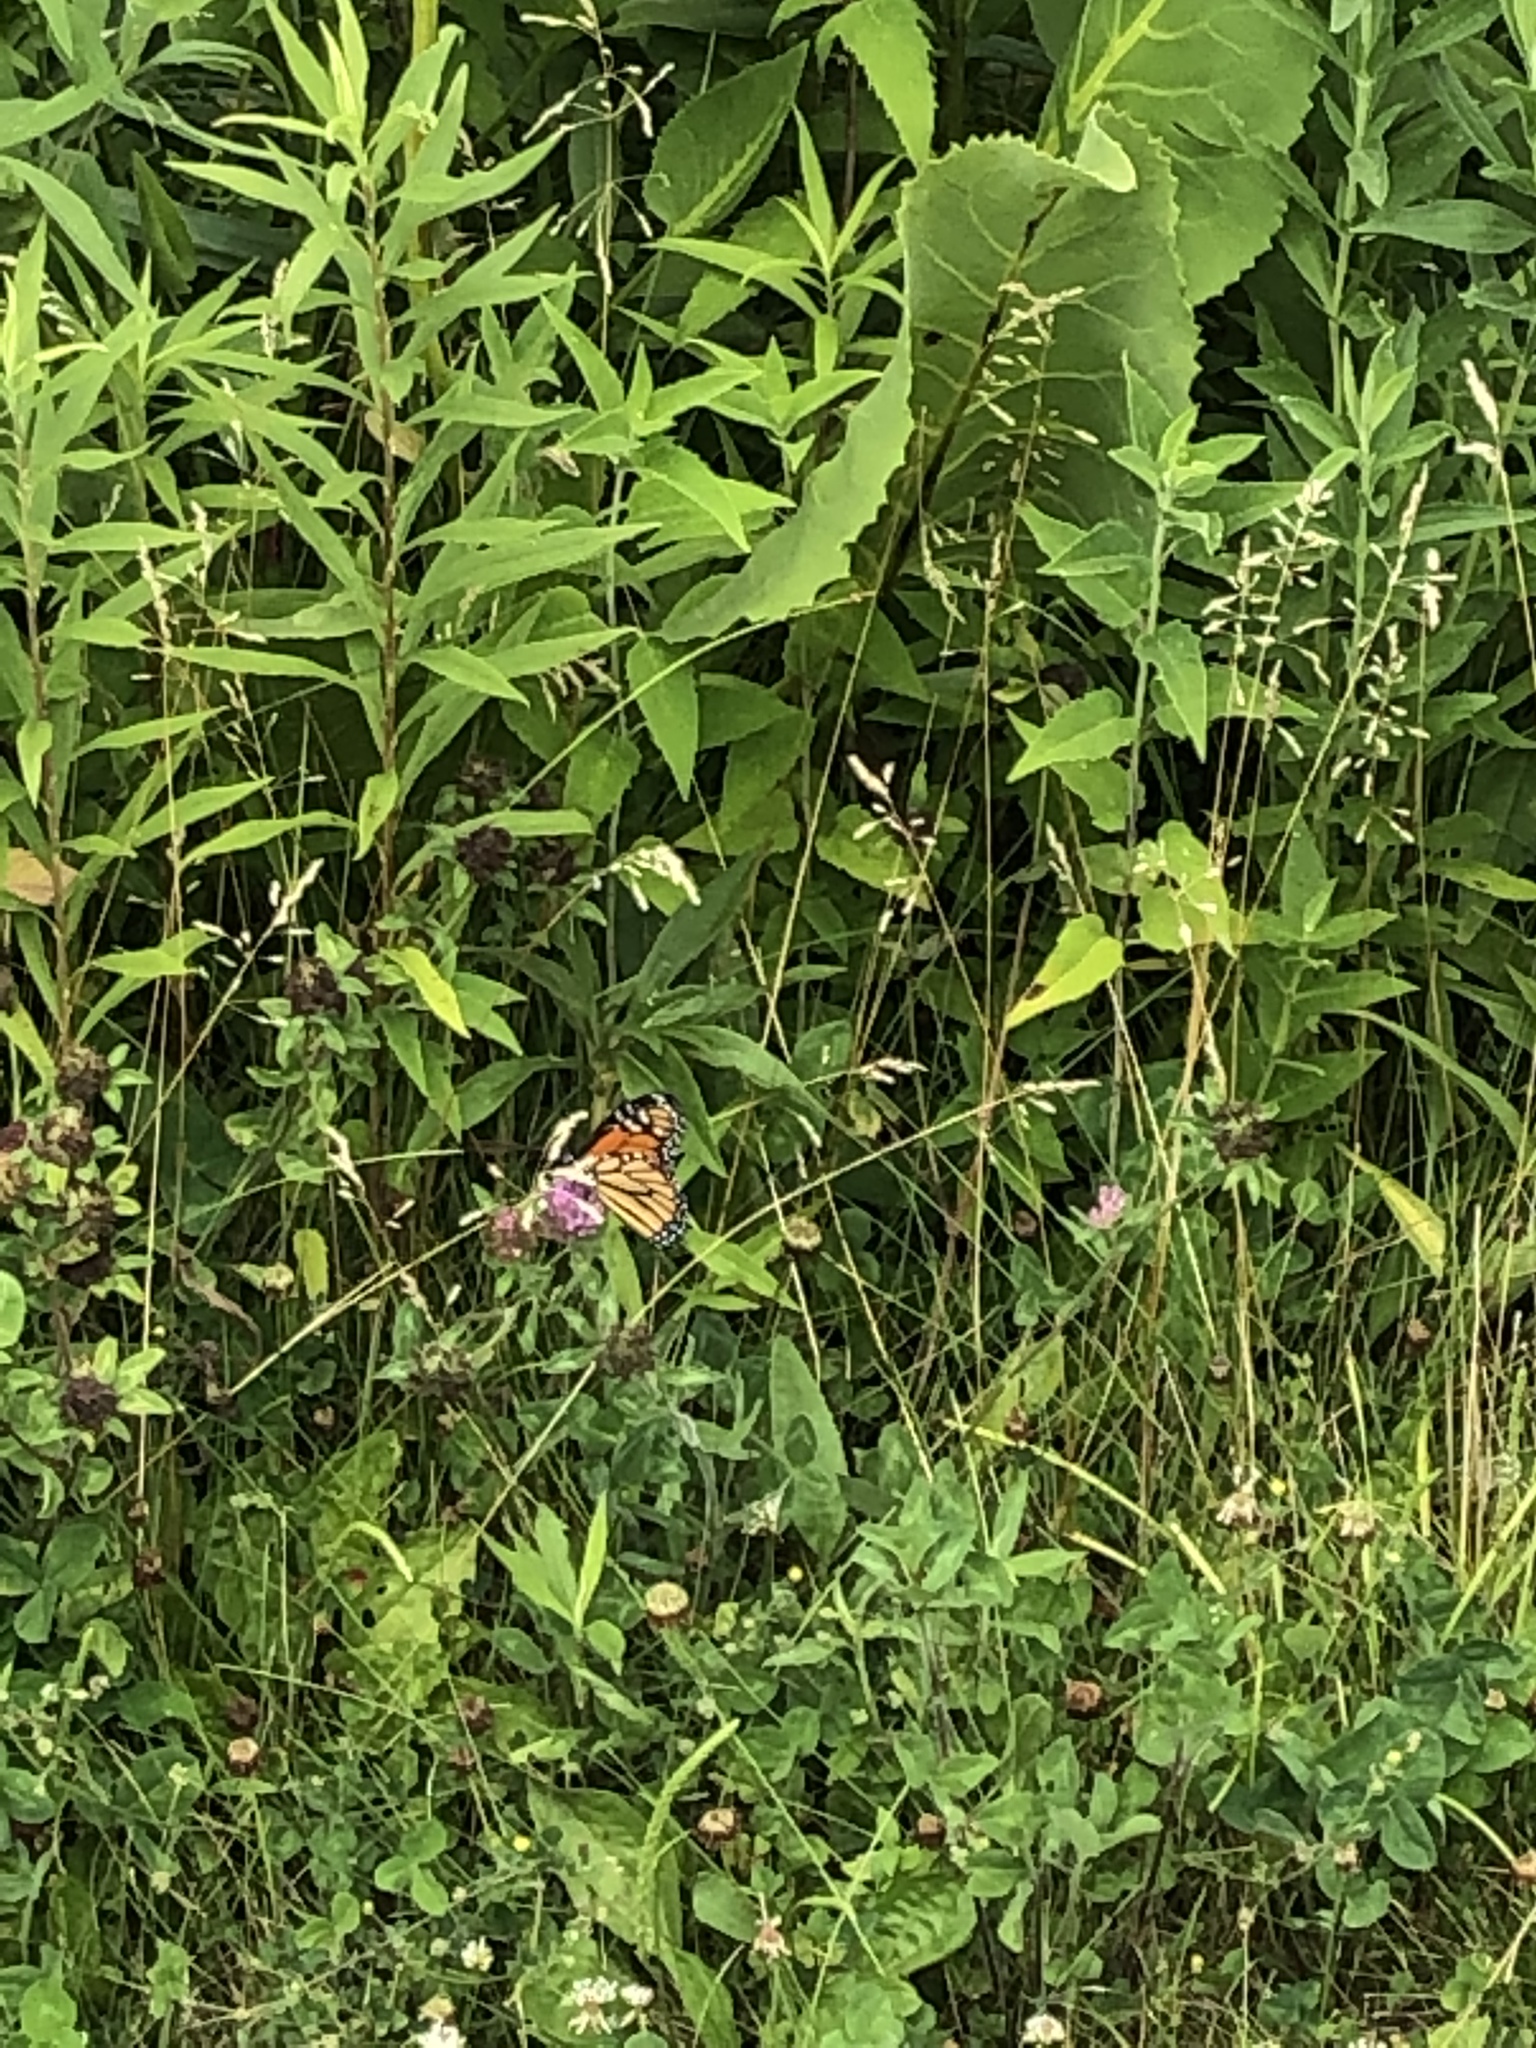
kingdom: Animalia
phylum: Arthropoda
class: Insecta
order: Lepidoptera
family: Nymphalidae
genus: Danaus
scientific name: Danaus plexippus
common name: Monarch
